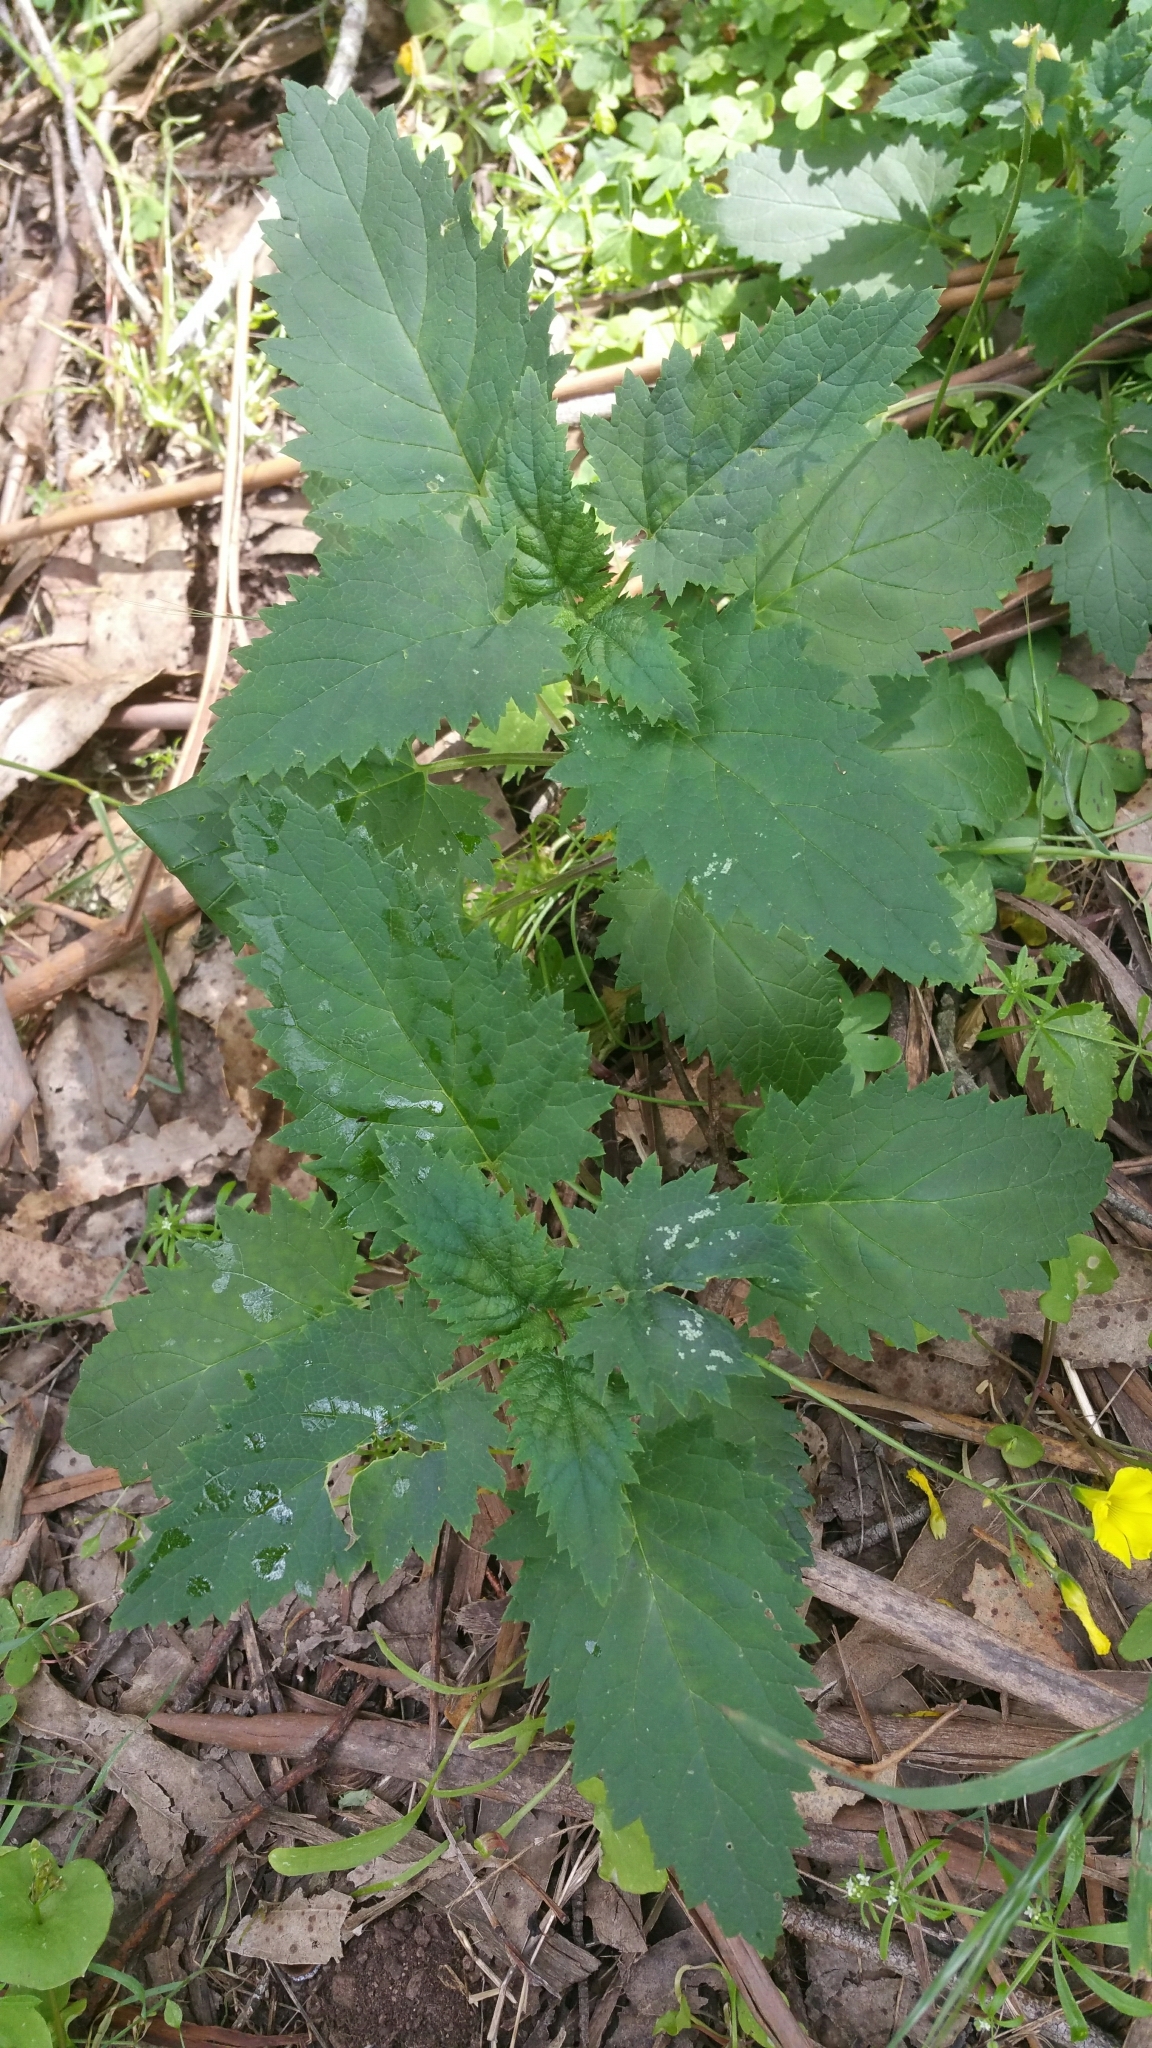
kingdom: Plantae
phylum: Tracheophyta
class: Magnoliopsida
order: Lamiales
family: Scrophulariaceae
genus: Scrophularia
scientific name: Scrophularia californica
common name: California figwort
